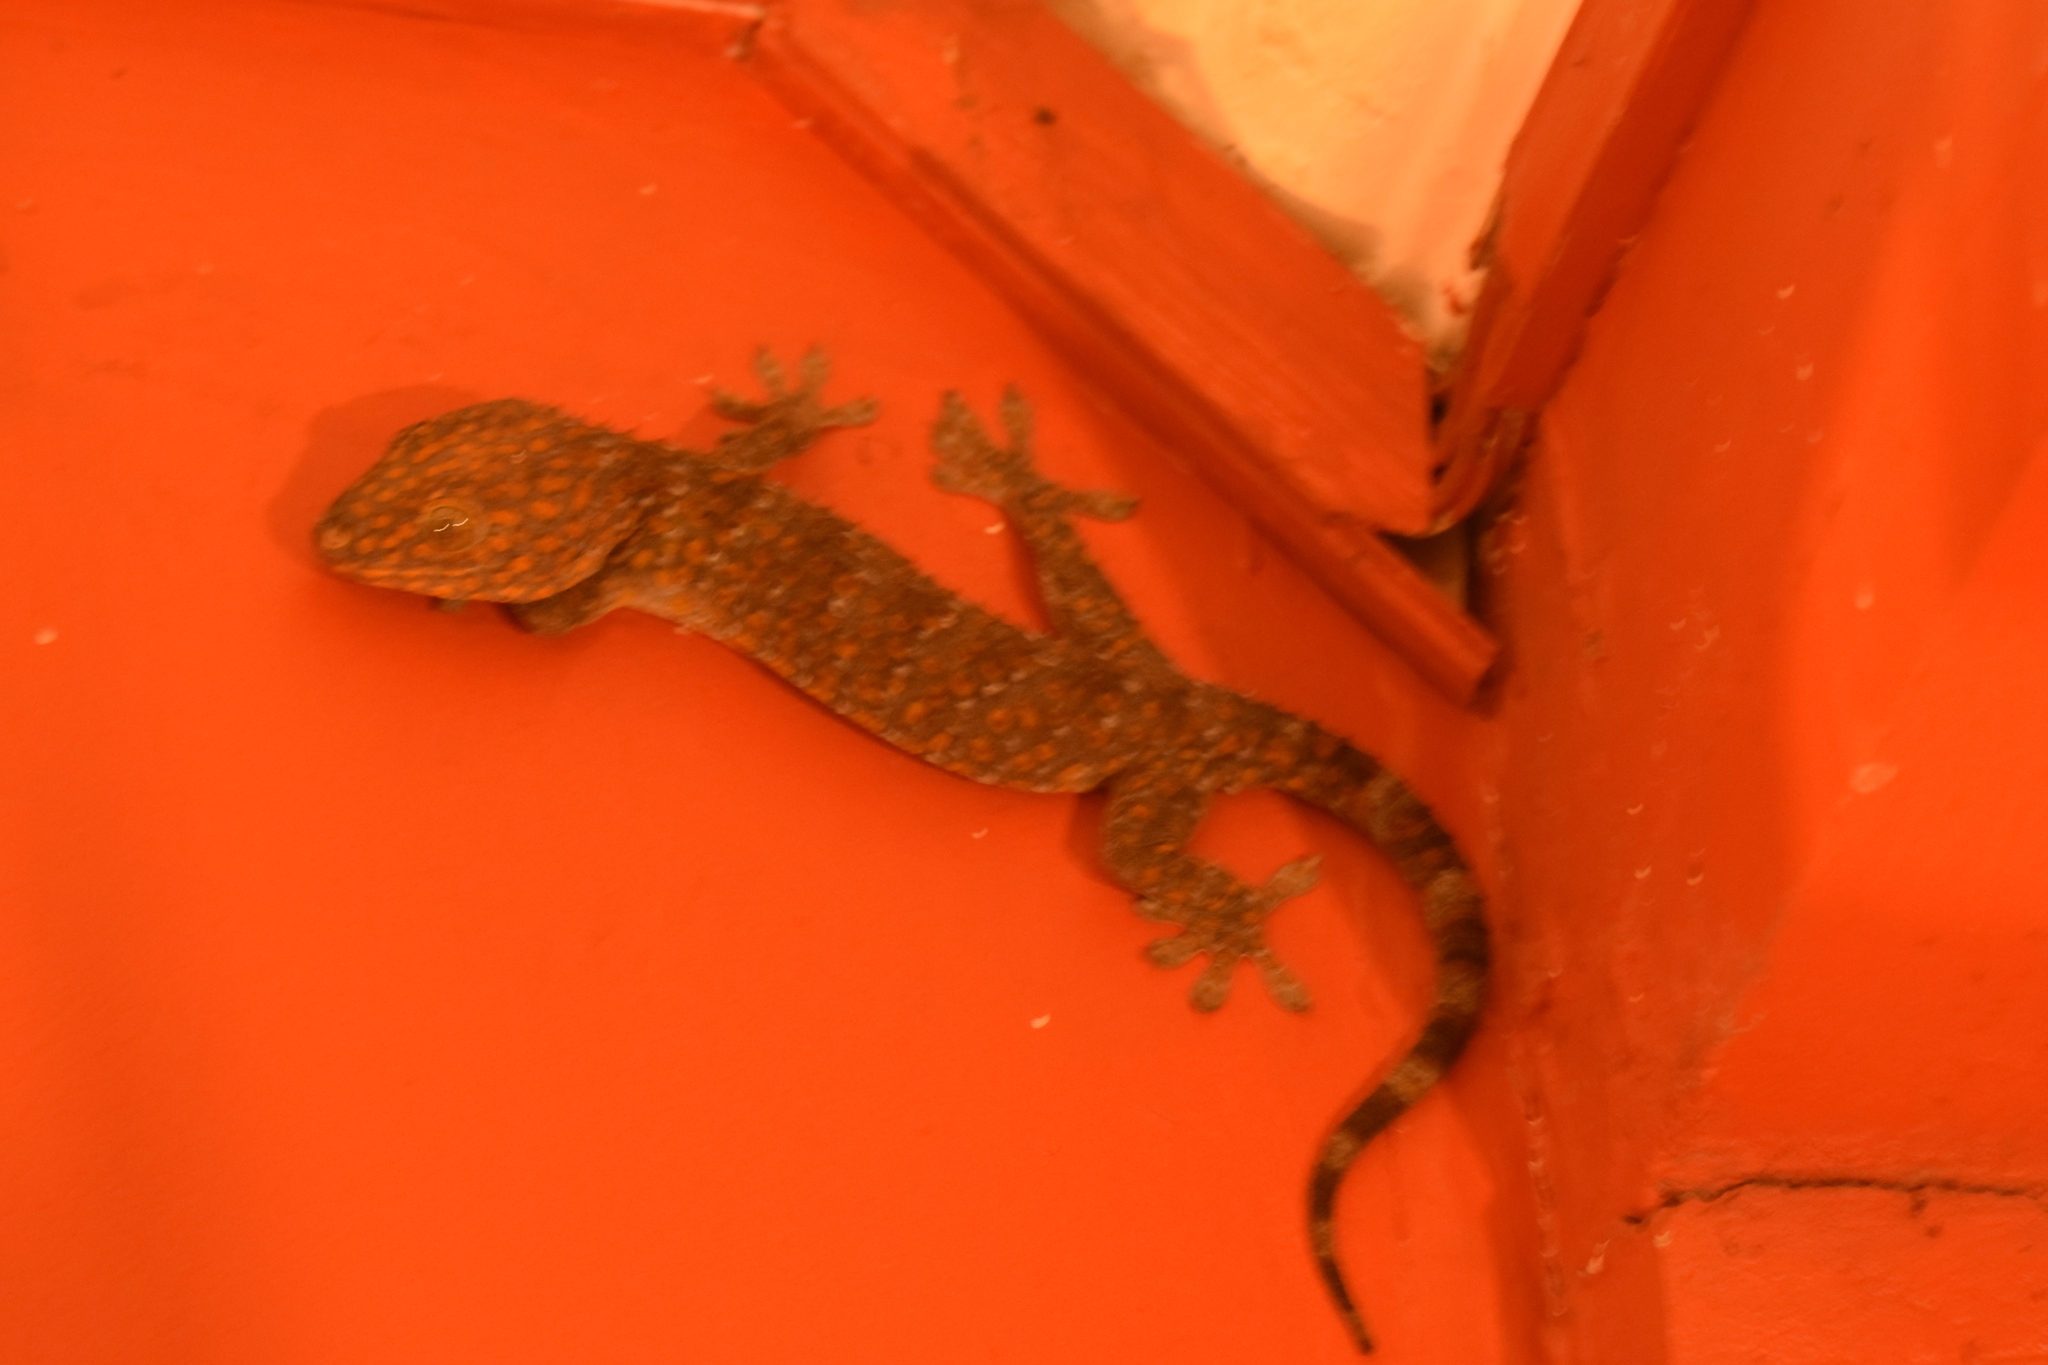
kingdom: Animalia
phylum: Chordata
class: Squamata
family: Gekkonidae
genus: Gekko
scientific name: Gekko gecko
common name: Tokay gecko
